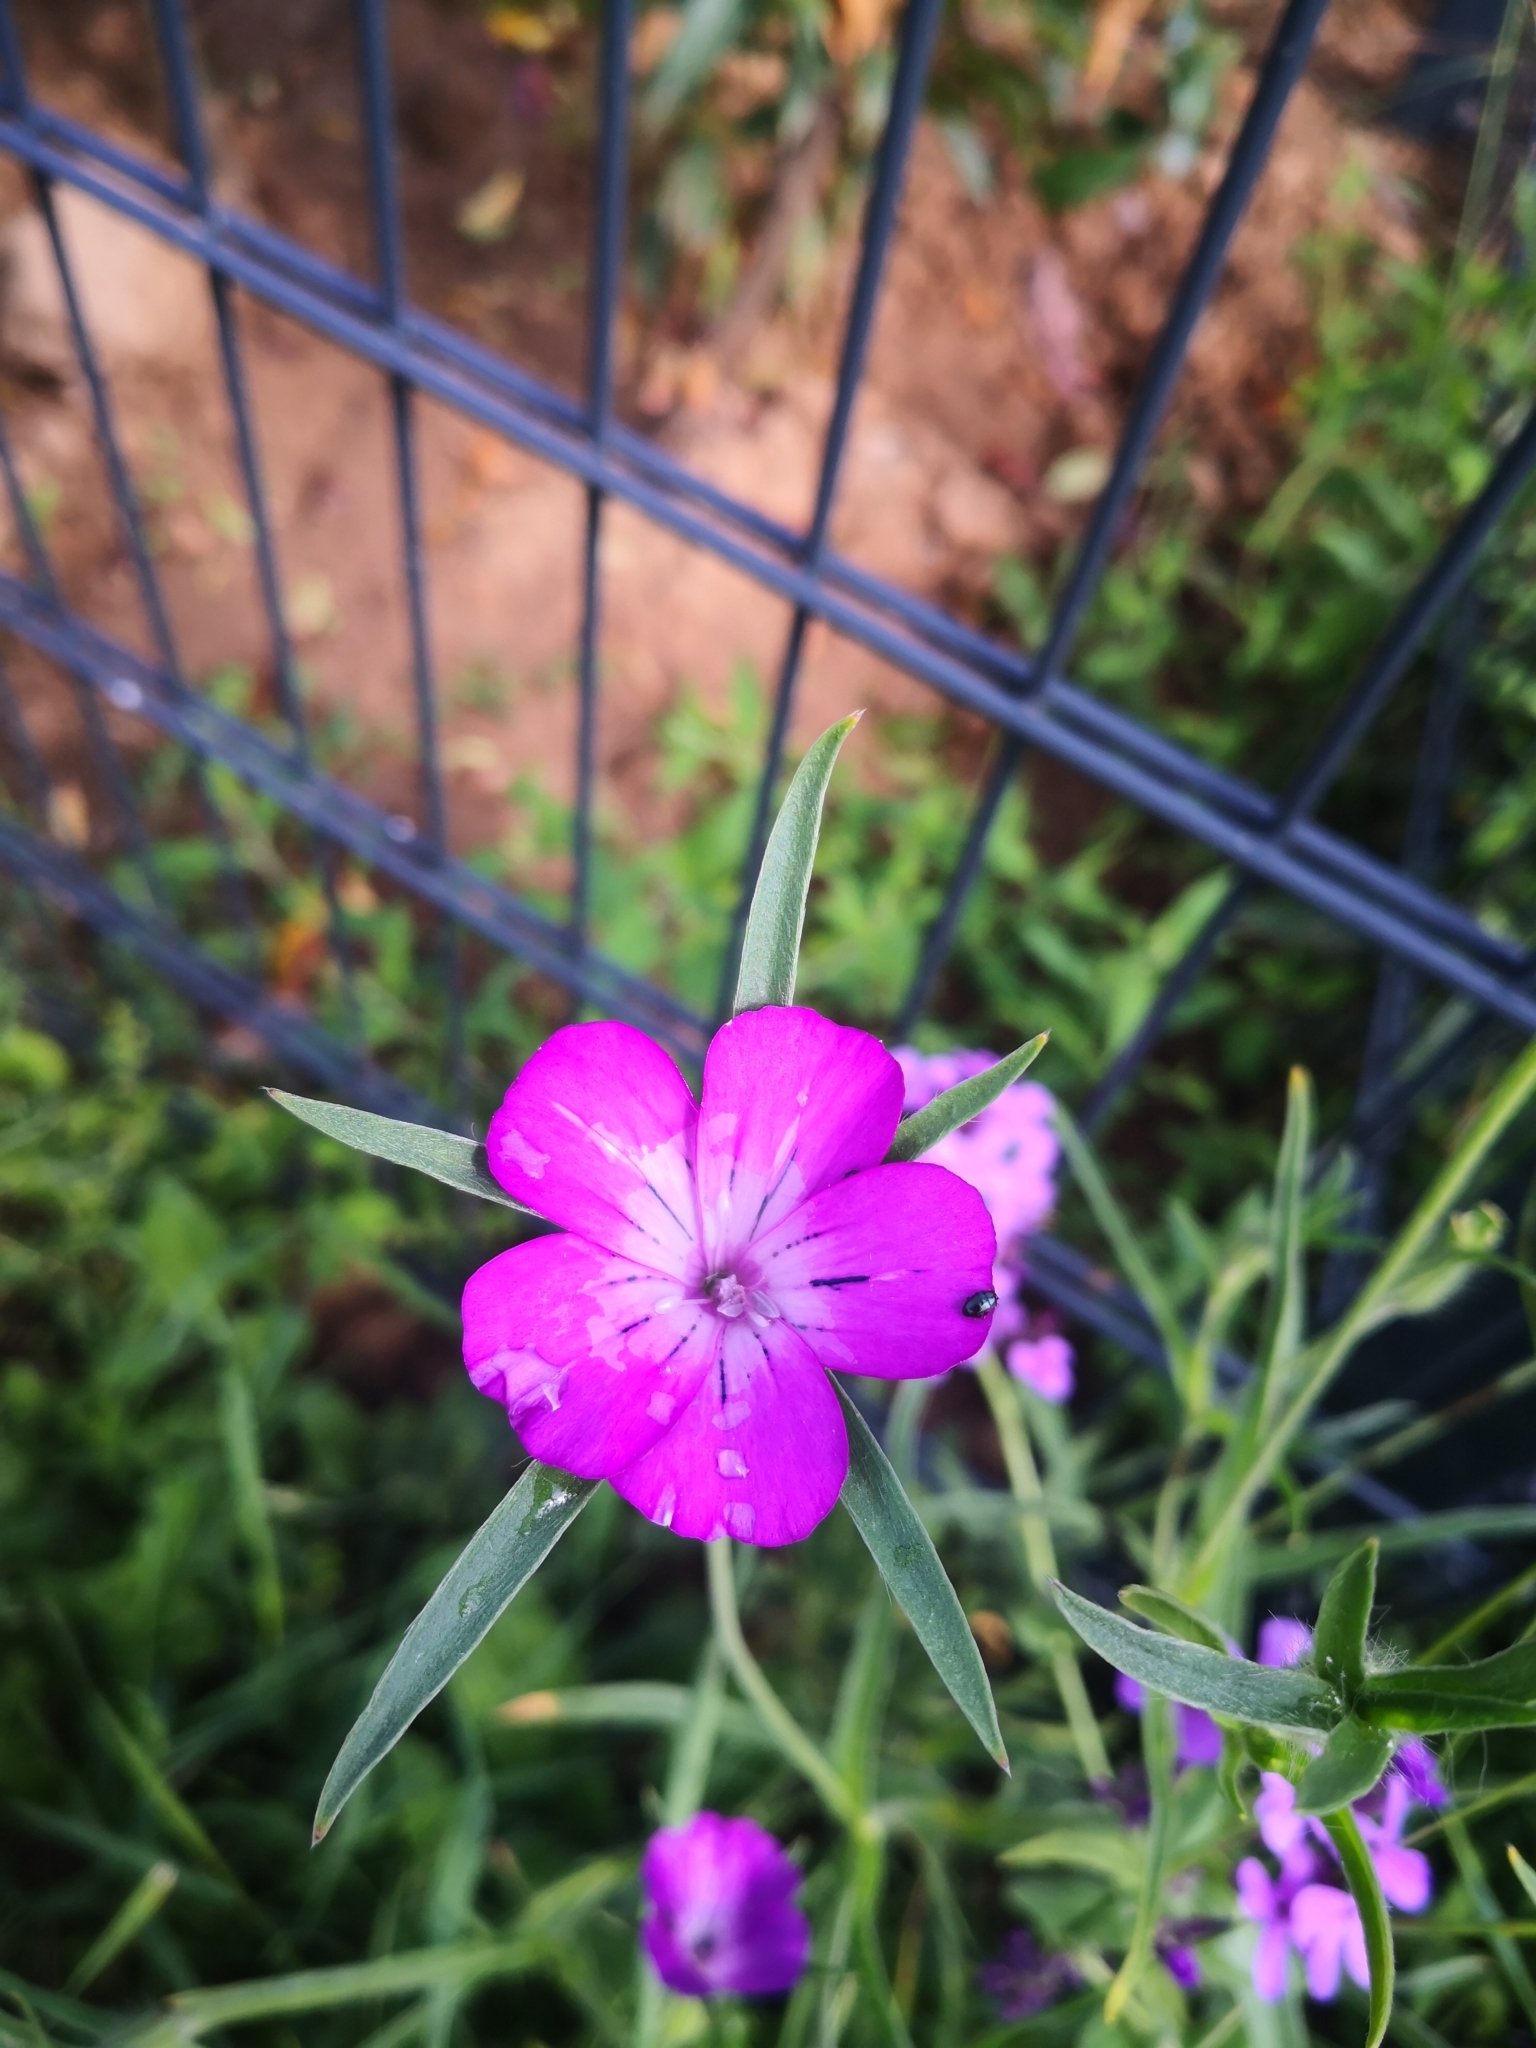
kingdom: Plantae
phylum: Tracheophyta
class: Magnoliopsida
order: Caryophyllales
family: Caryophyllaceae
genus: Agrostemma
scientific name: Agrostemma githago
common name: Common corncockle
